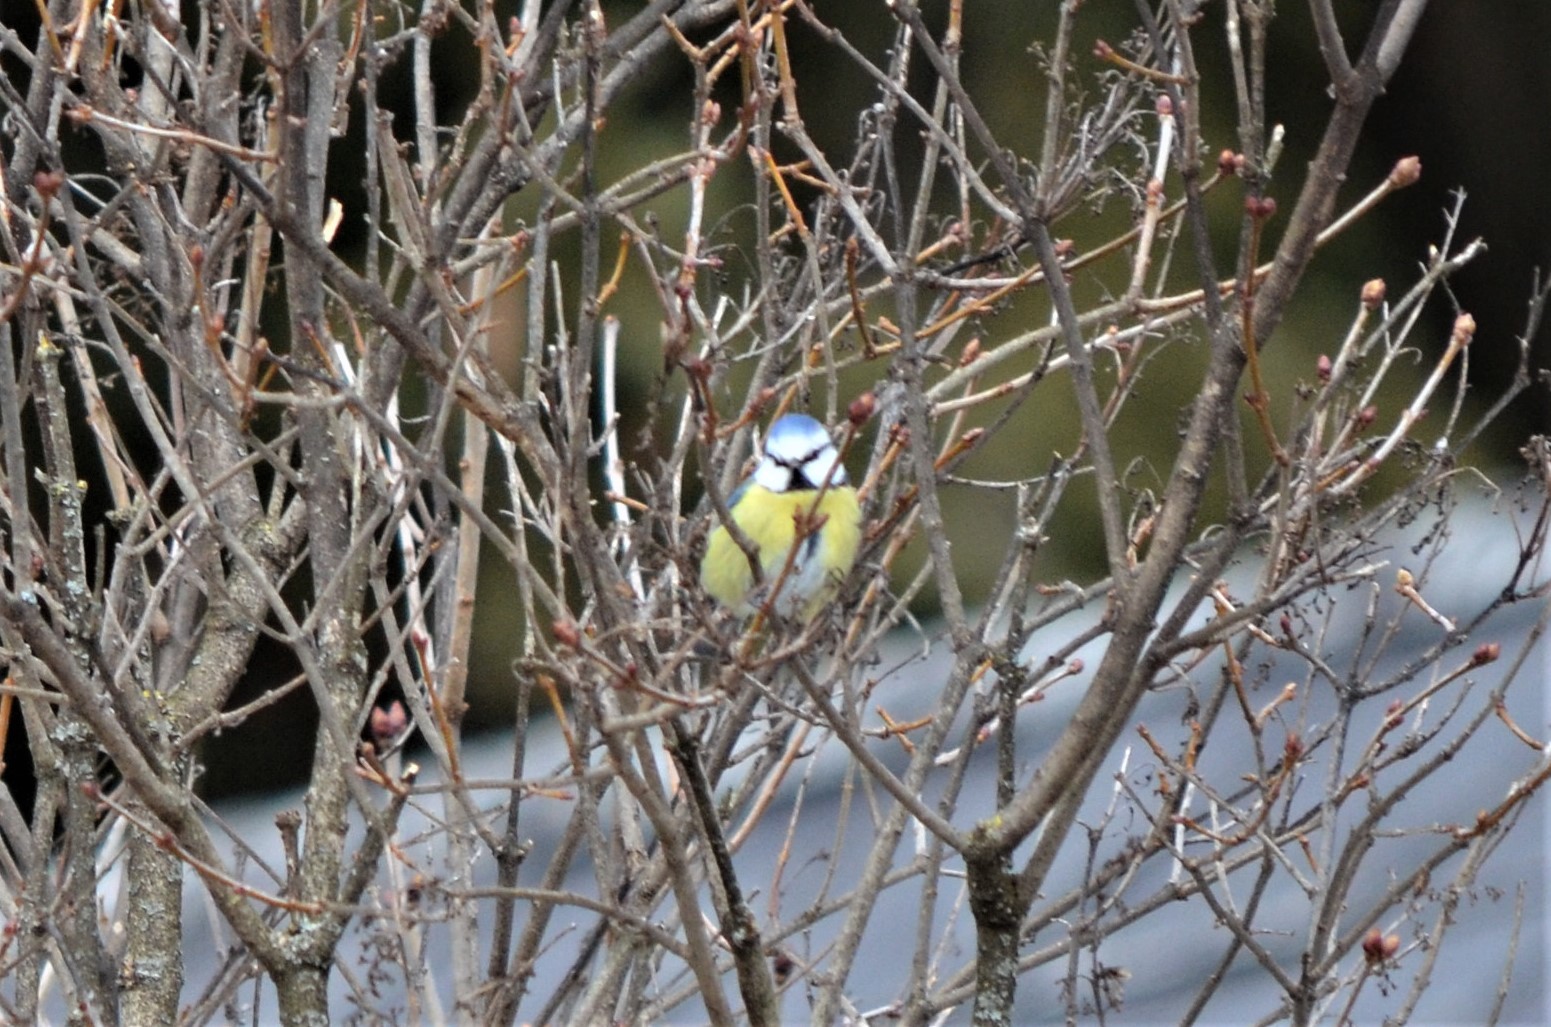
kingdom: Animalia
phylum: Chordata
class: Aves
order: Passeriformes
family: Paridae
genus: Cyanistes
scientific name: Cyanistes caeruleus
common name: Eurasian blue tit
